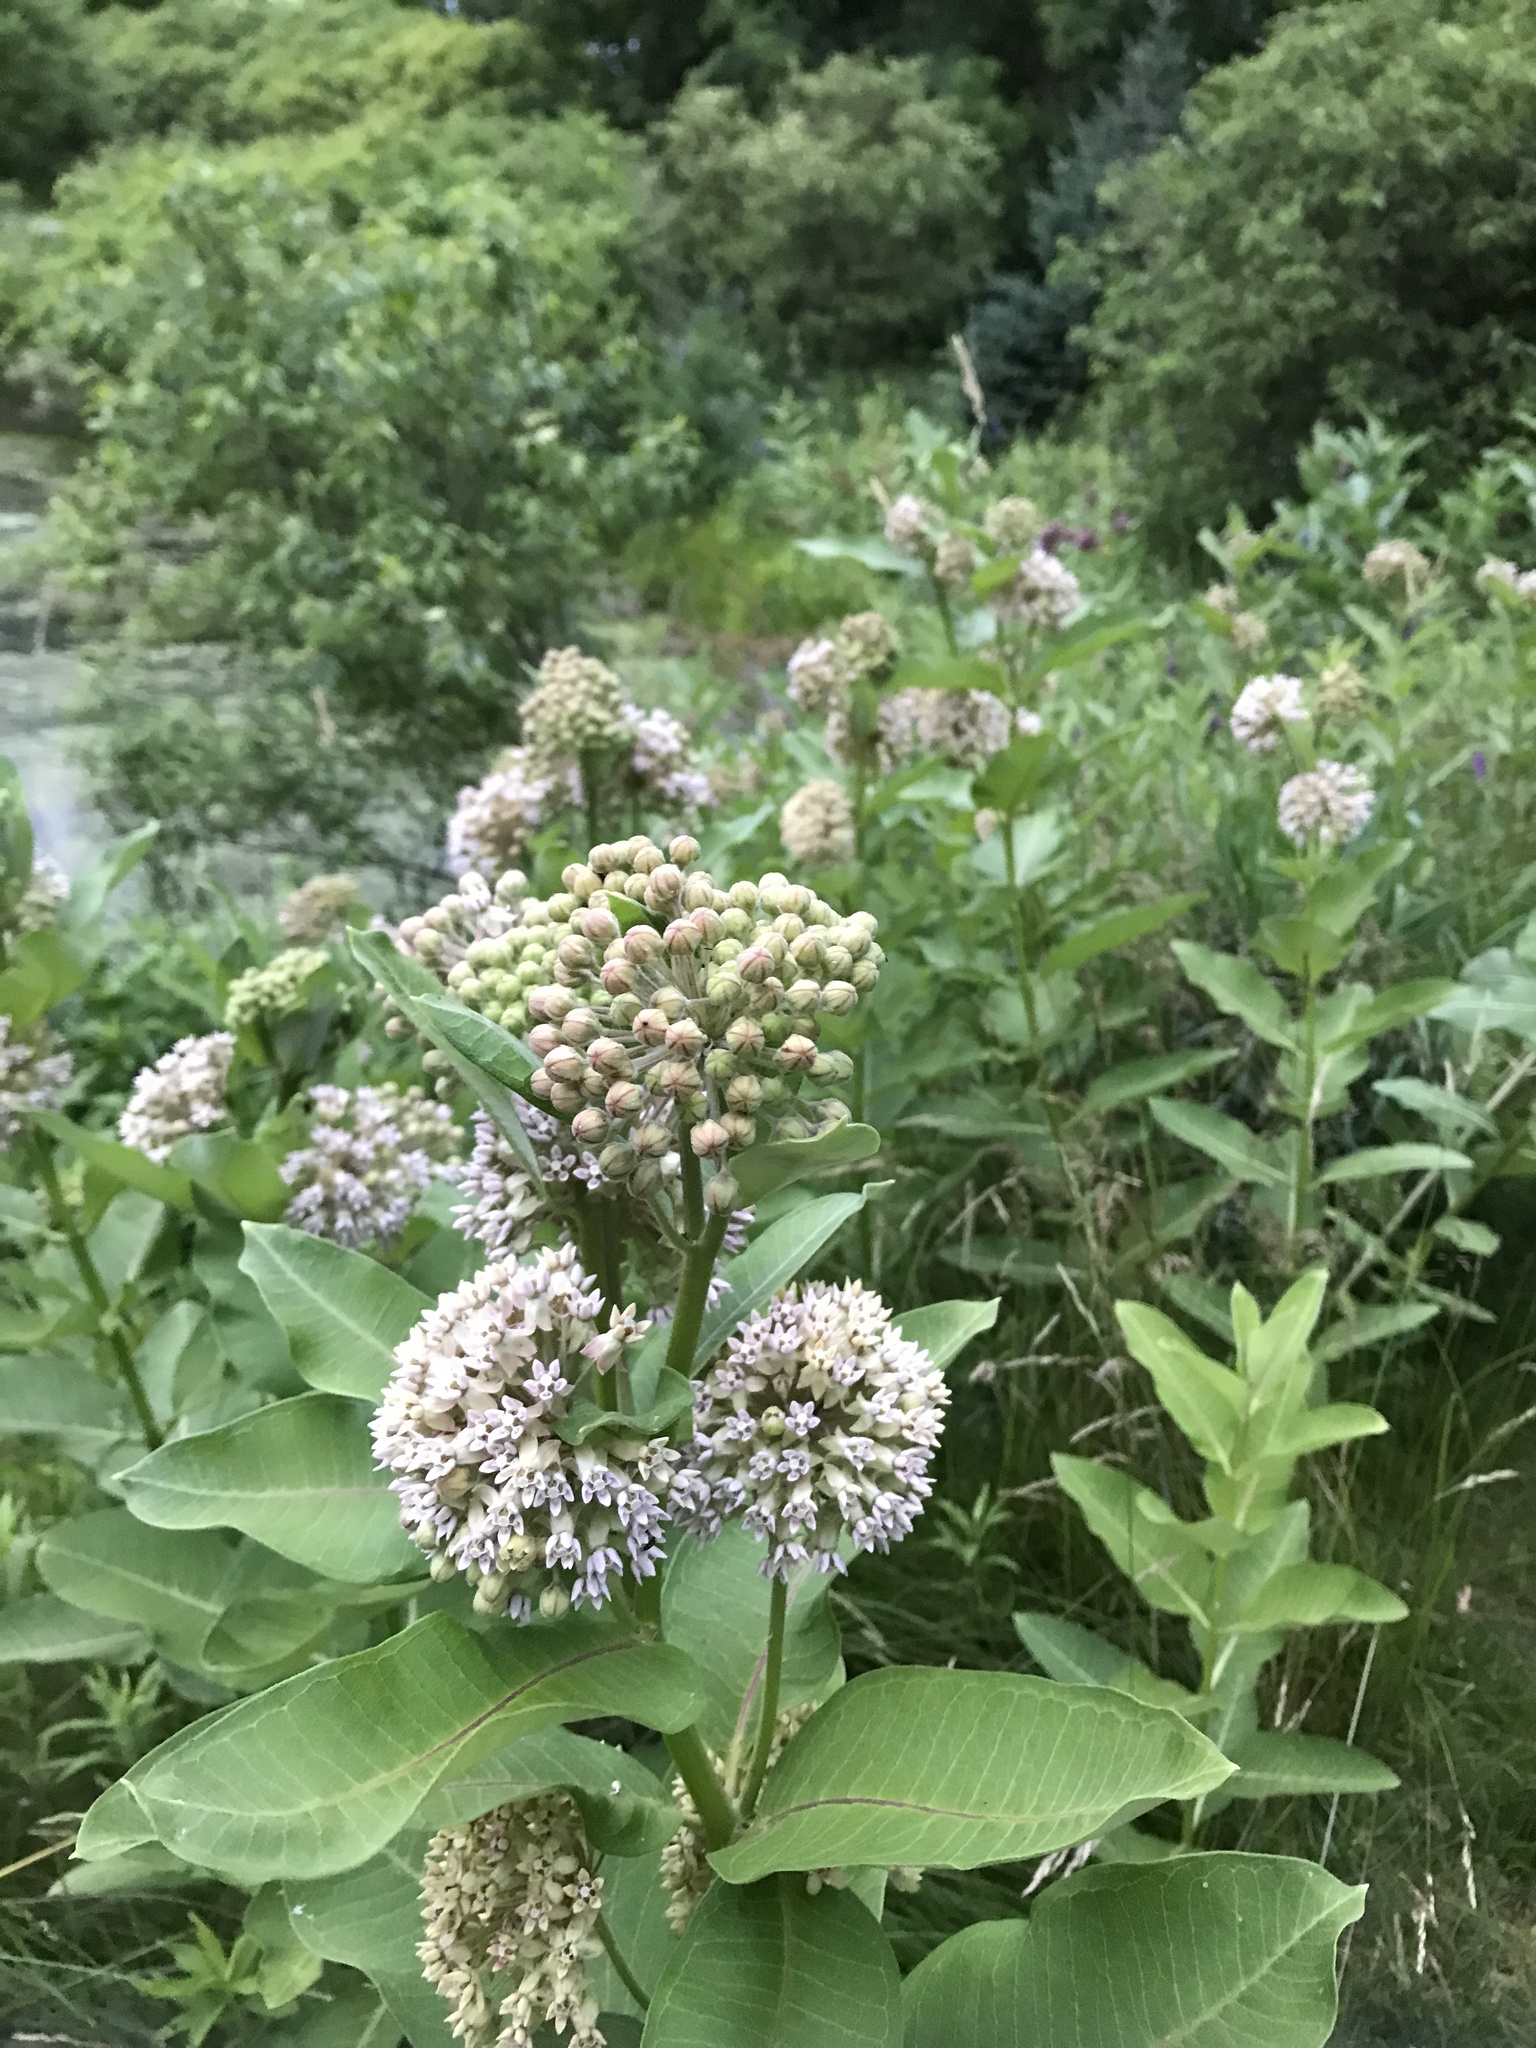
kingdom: Plantae
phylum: Tracheophyta
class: Magnoliopsida
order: Gentianales
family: Apocynaceae
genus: Asclepias
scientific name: Asclepias syriaca
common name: Common milkweed
